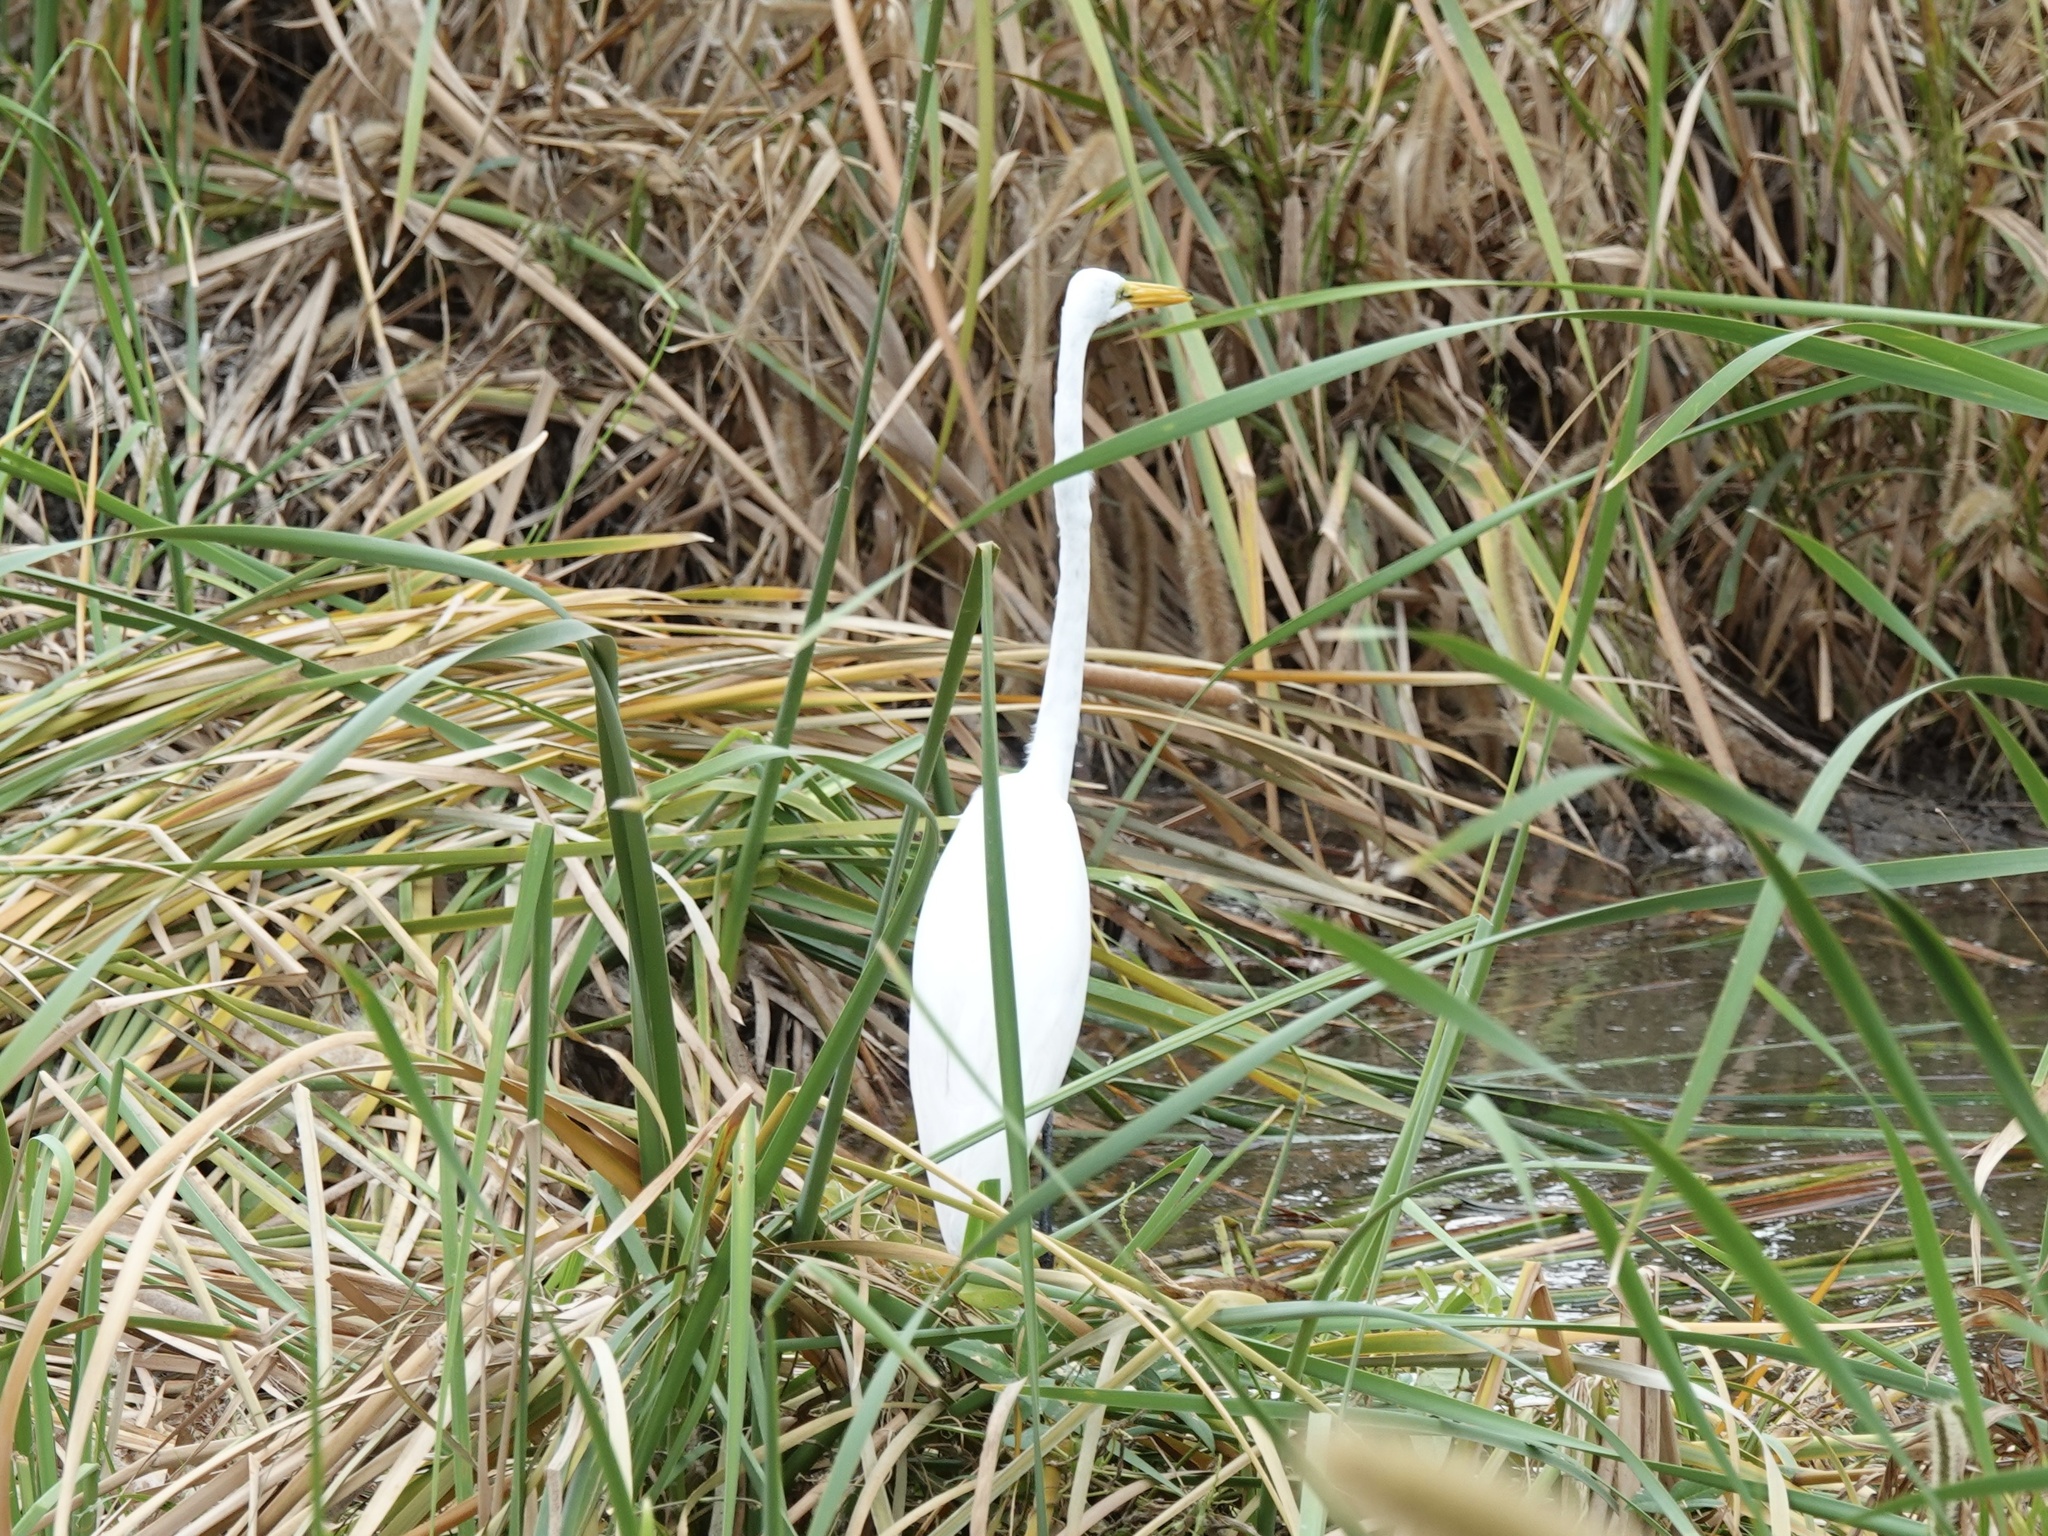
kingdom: Animalia
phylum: Chordata
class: Aves
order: Pelecaniformes
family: Ardeidae
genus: Ardea
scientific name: Ardea alba
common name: Great egret
